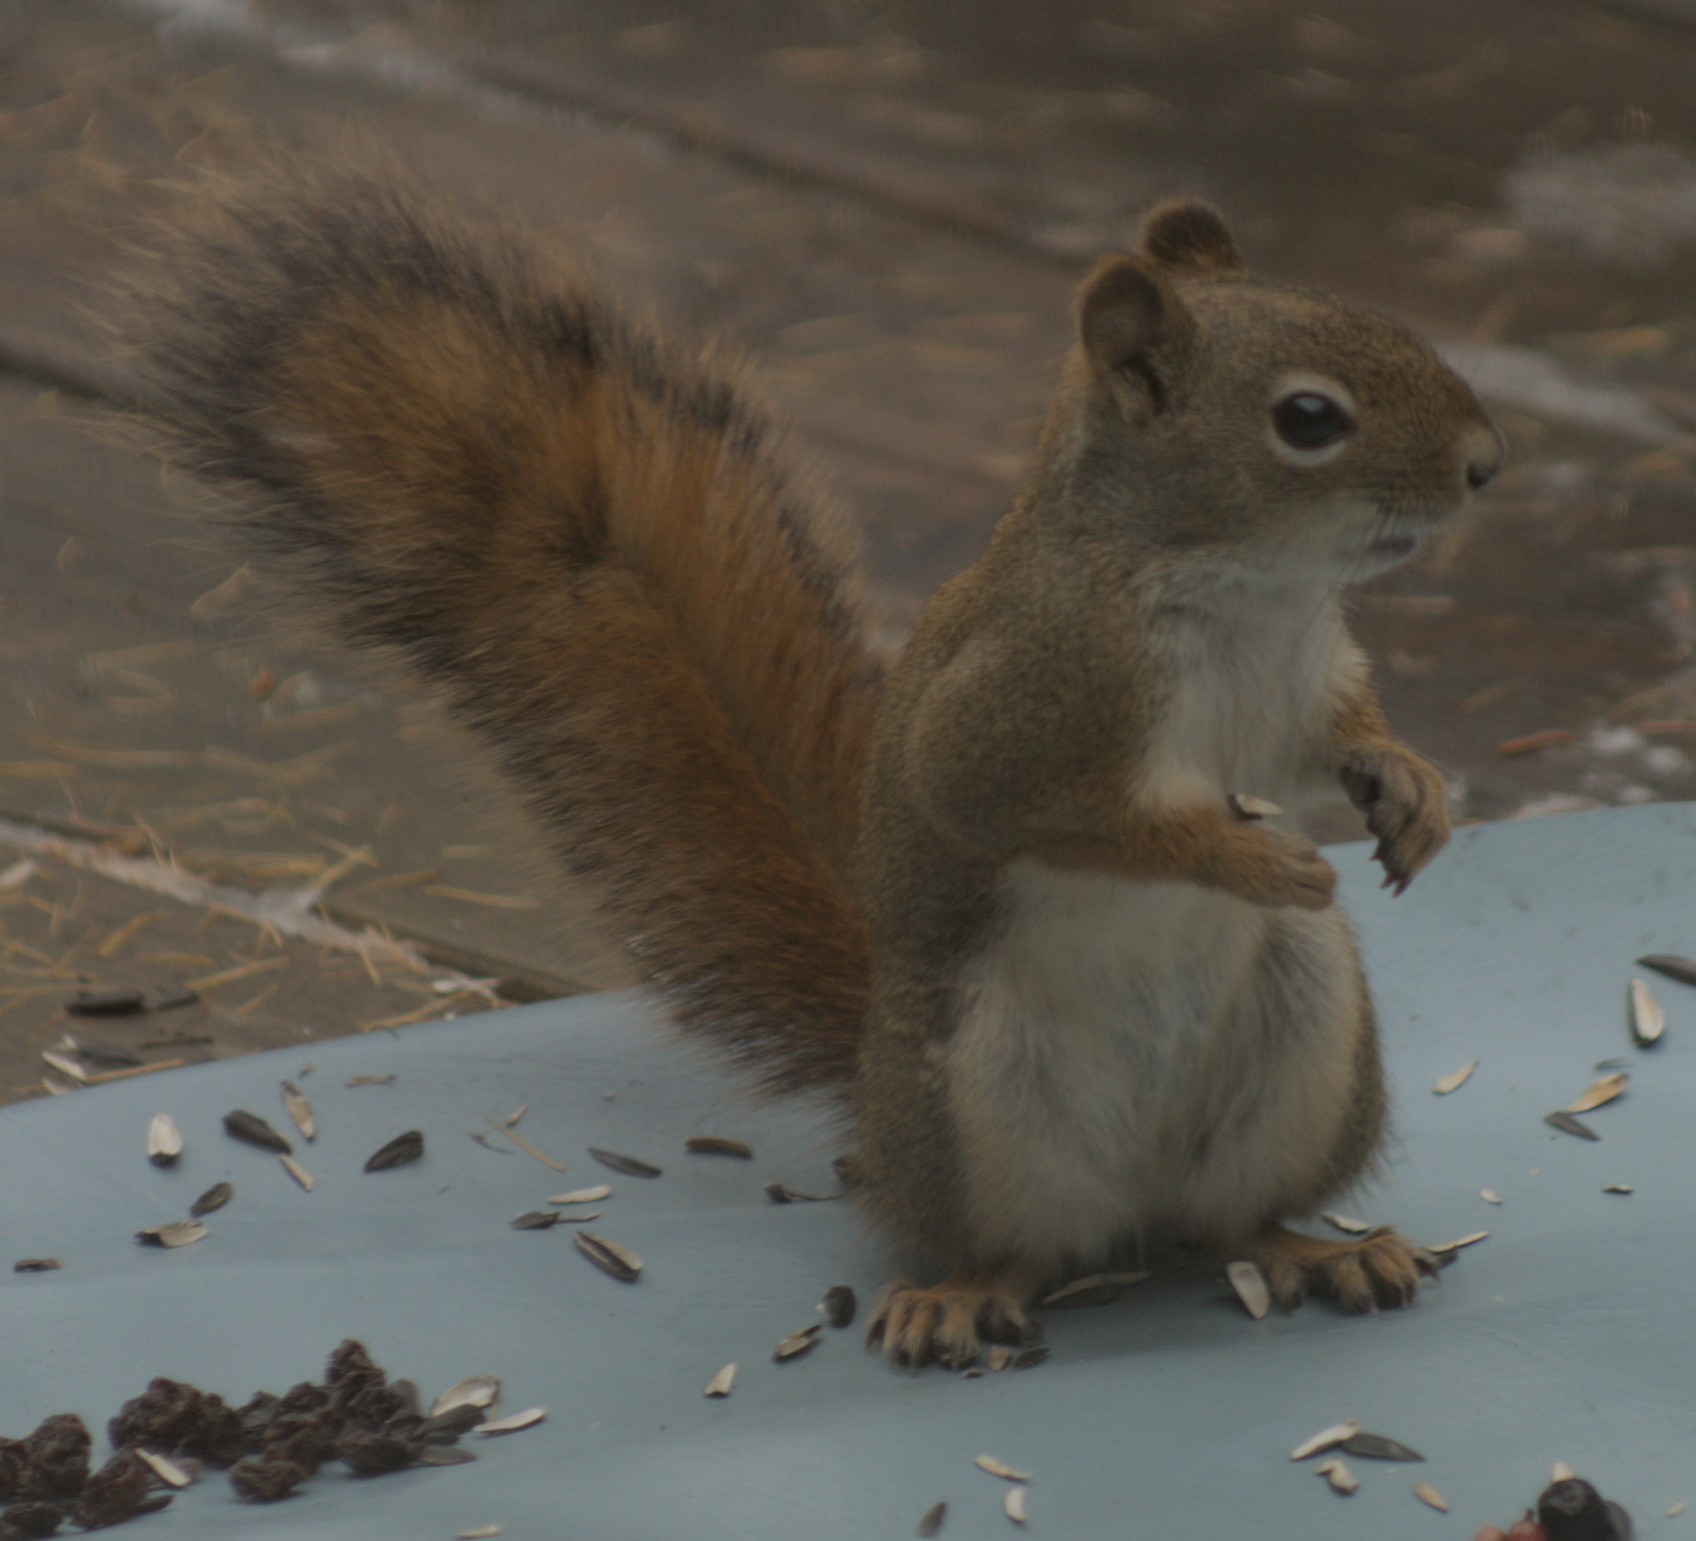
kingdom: Animalia
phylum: Chordata
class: Mammalia
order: Rodentia
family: Sciuridae
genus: Tamiasciurus
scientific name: Tamiasciurus hudsonicus
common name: Red squirrel
